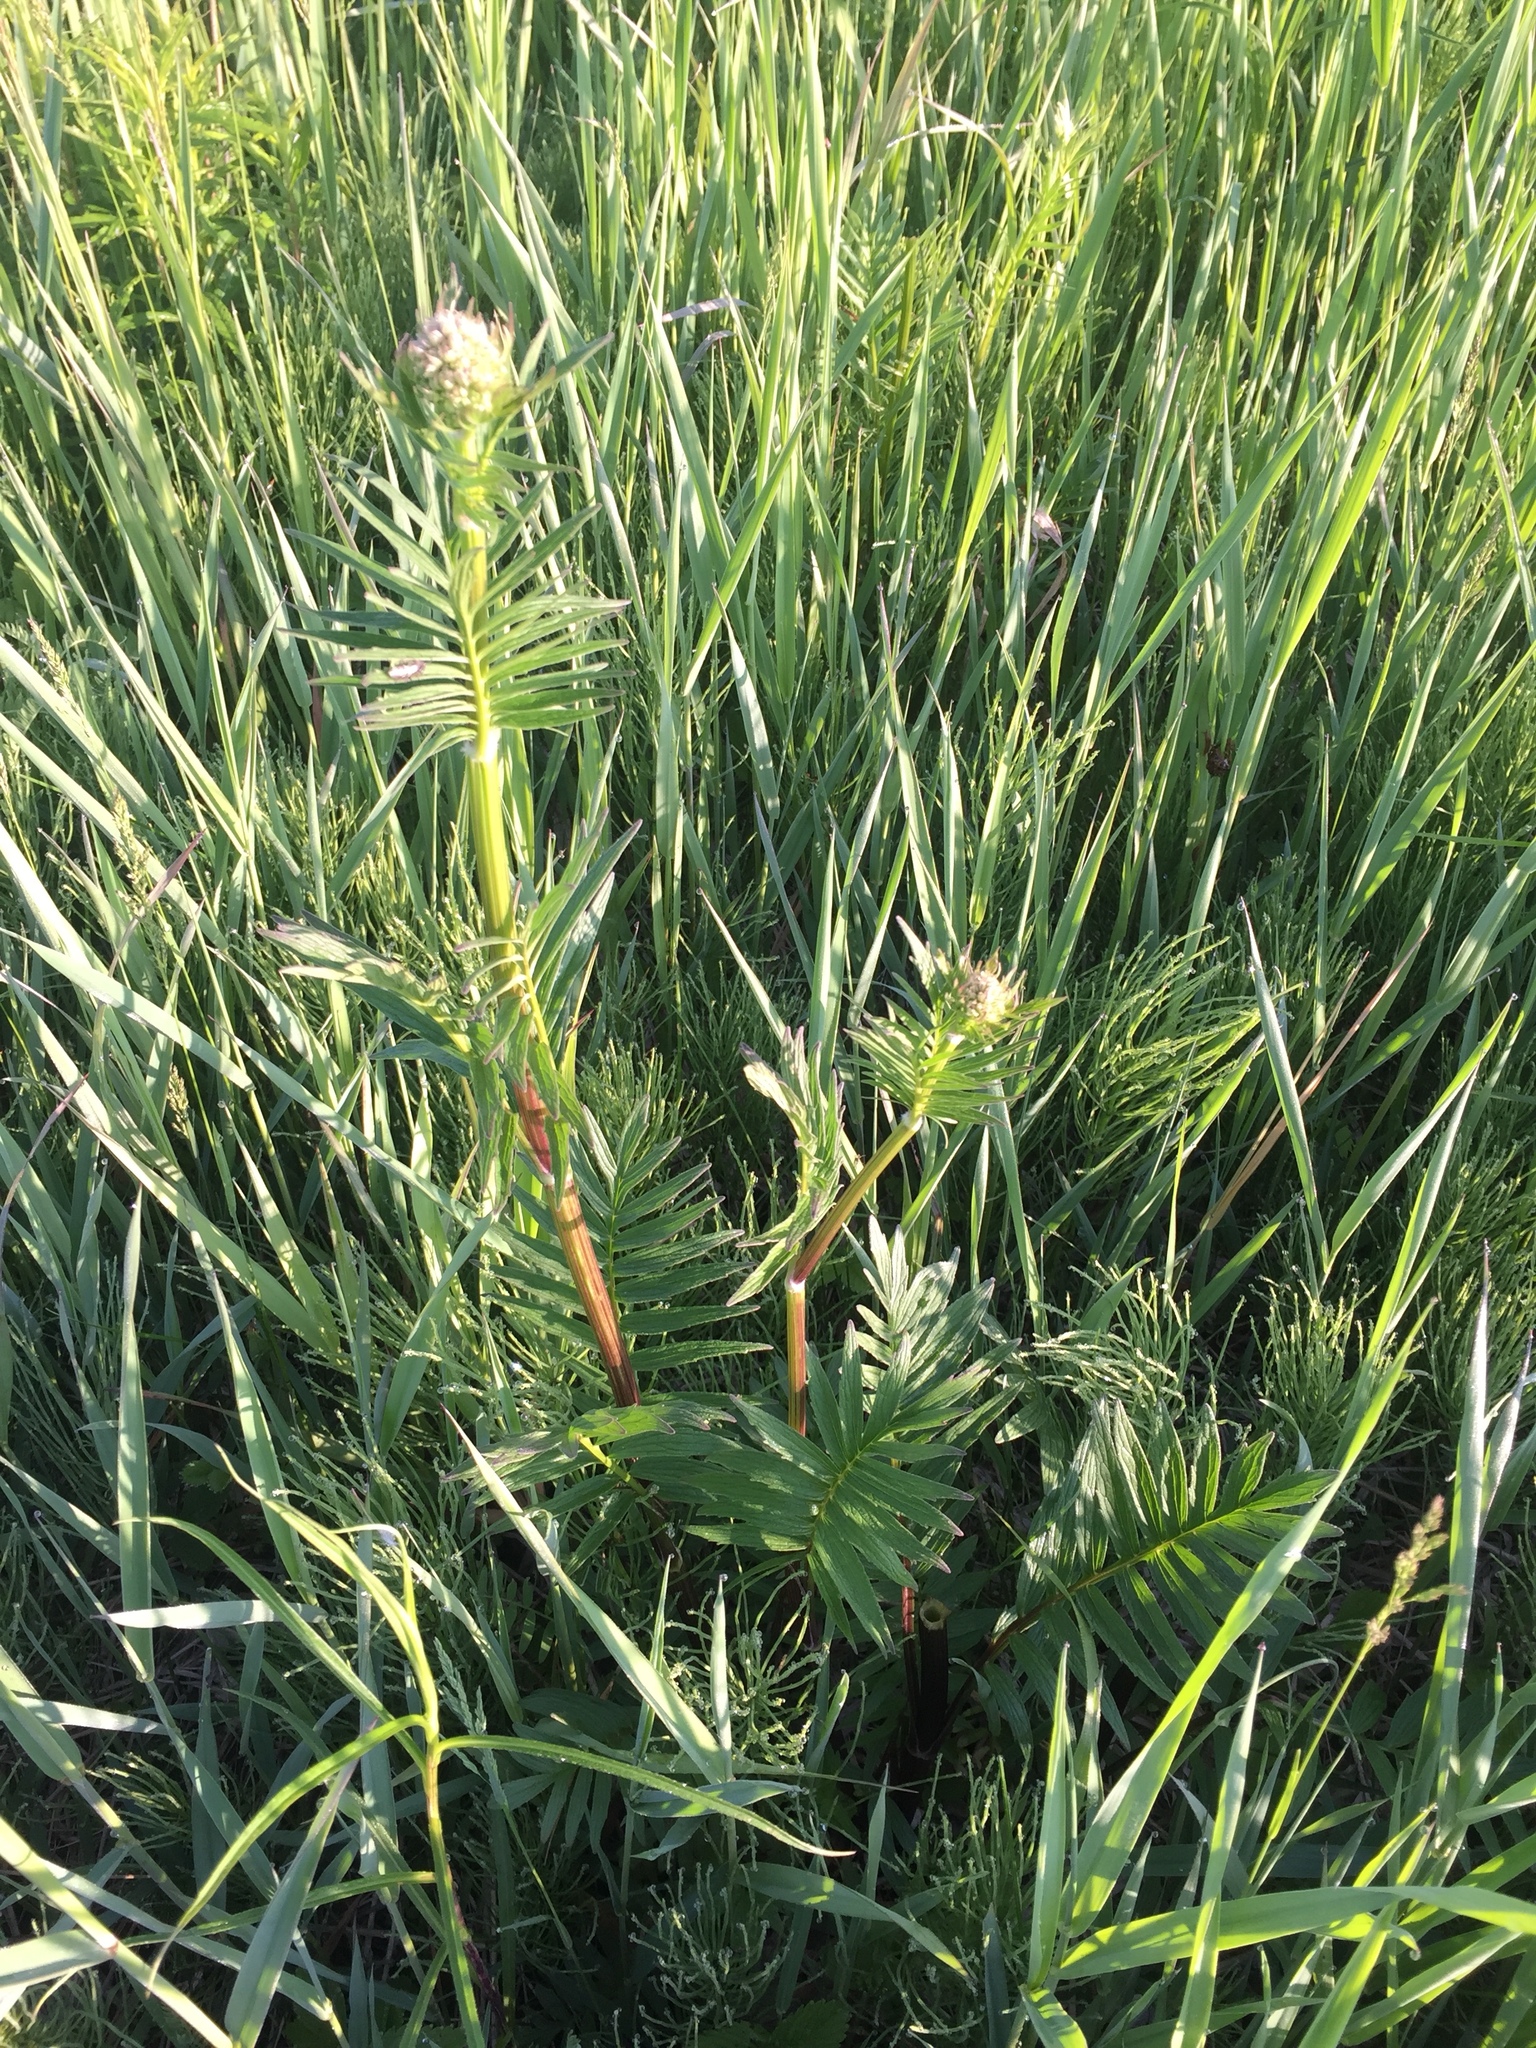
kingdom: Plantae
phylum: Tracheophyta
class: Magnoliopsida
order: Dipsacales
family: Caprifoliaceae
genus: Valeriana
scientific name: Valeriana officinalis
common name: Common valerian
